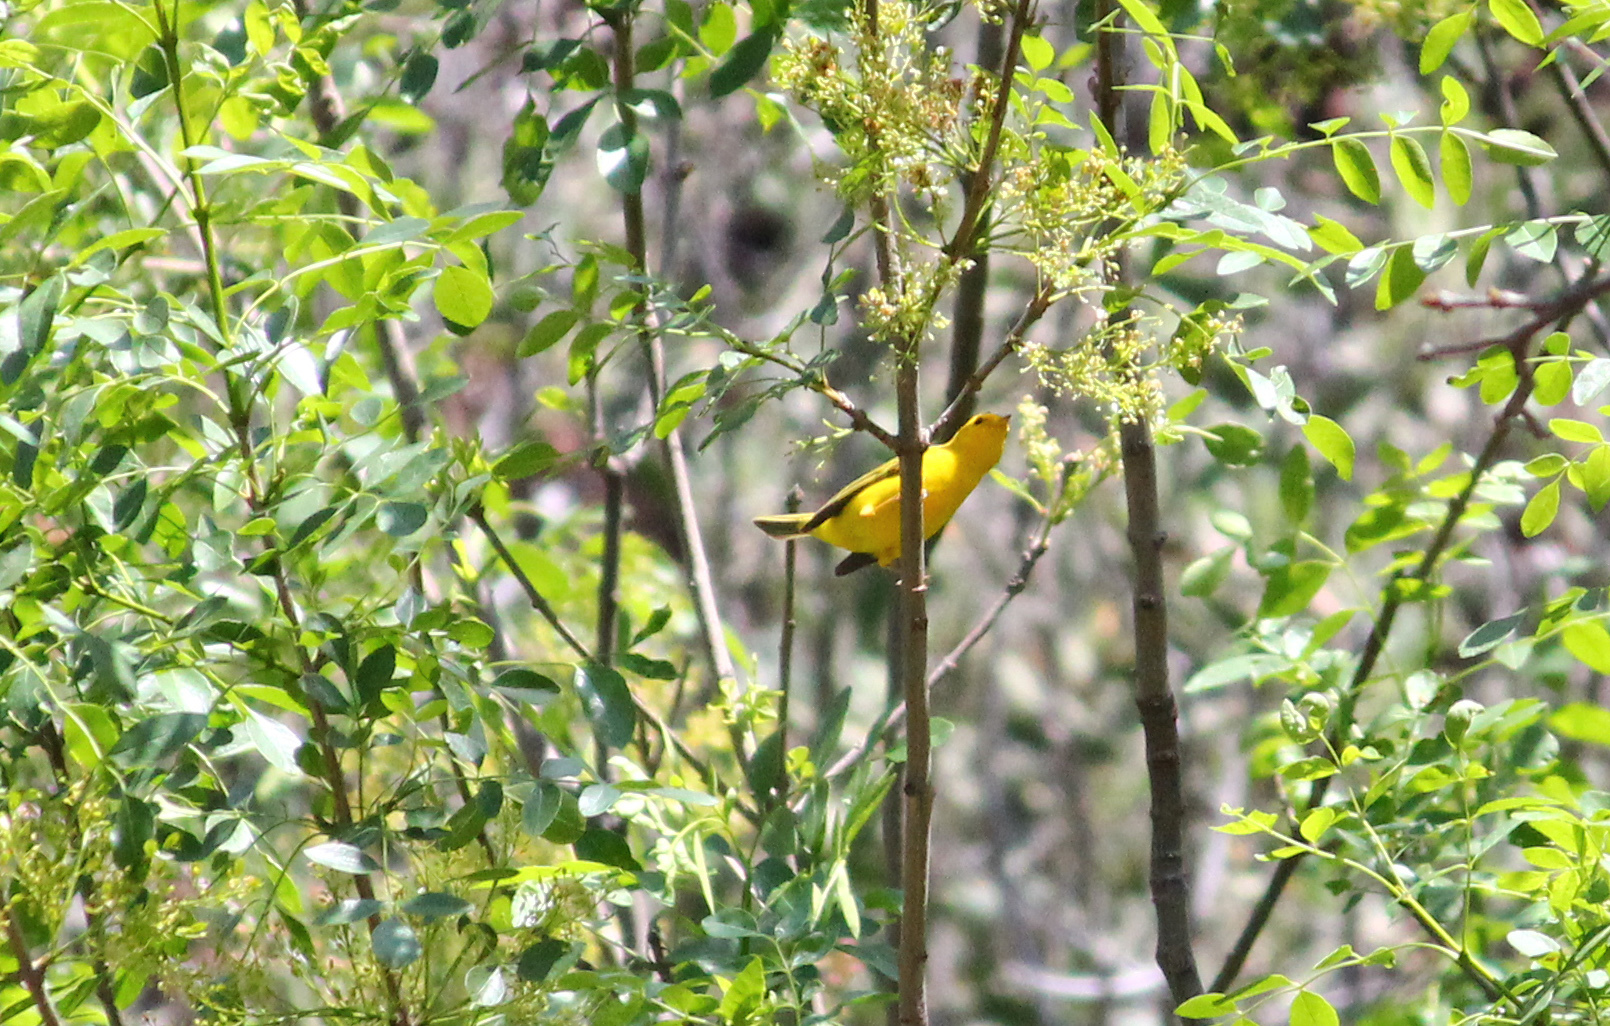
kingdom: Animalia
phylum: Chordata
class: Aves
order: Passeriformes
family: Parulidae
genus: Cardellina
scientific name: Cardellina pusilla
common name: Wilson's warbler
